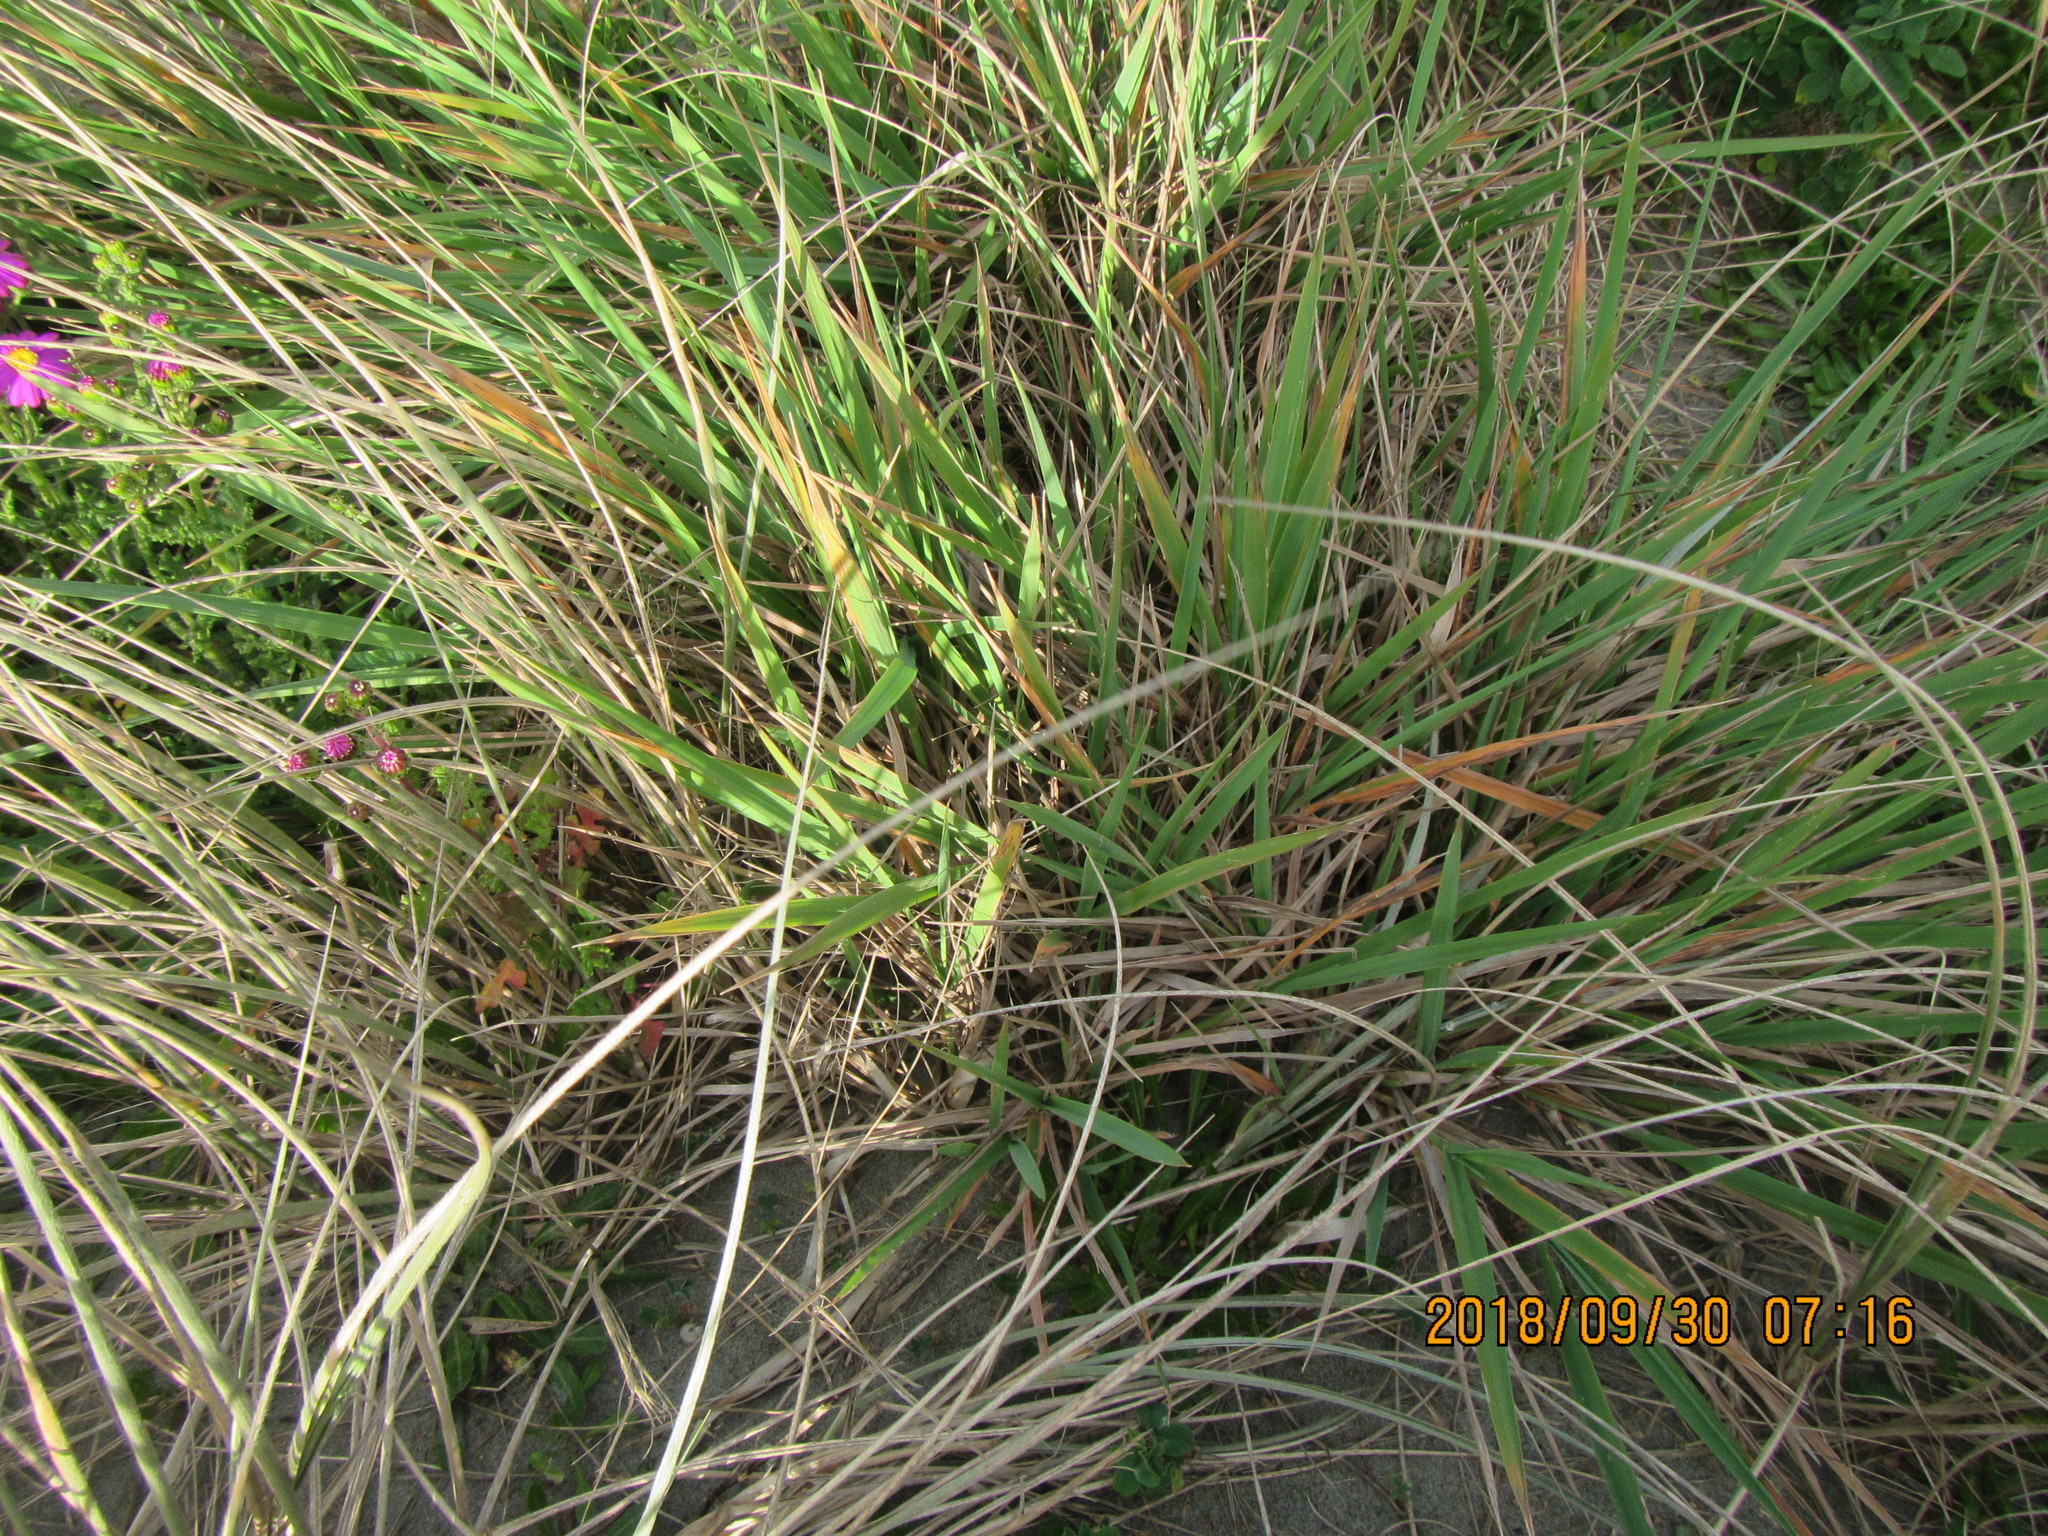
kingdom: Plantae
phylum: Tracheophyta
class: Liliopsida
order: Poales
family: Poaceae
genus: Lachnagrostis
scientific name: Lachnagrostis billardierei
